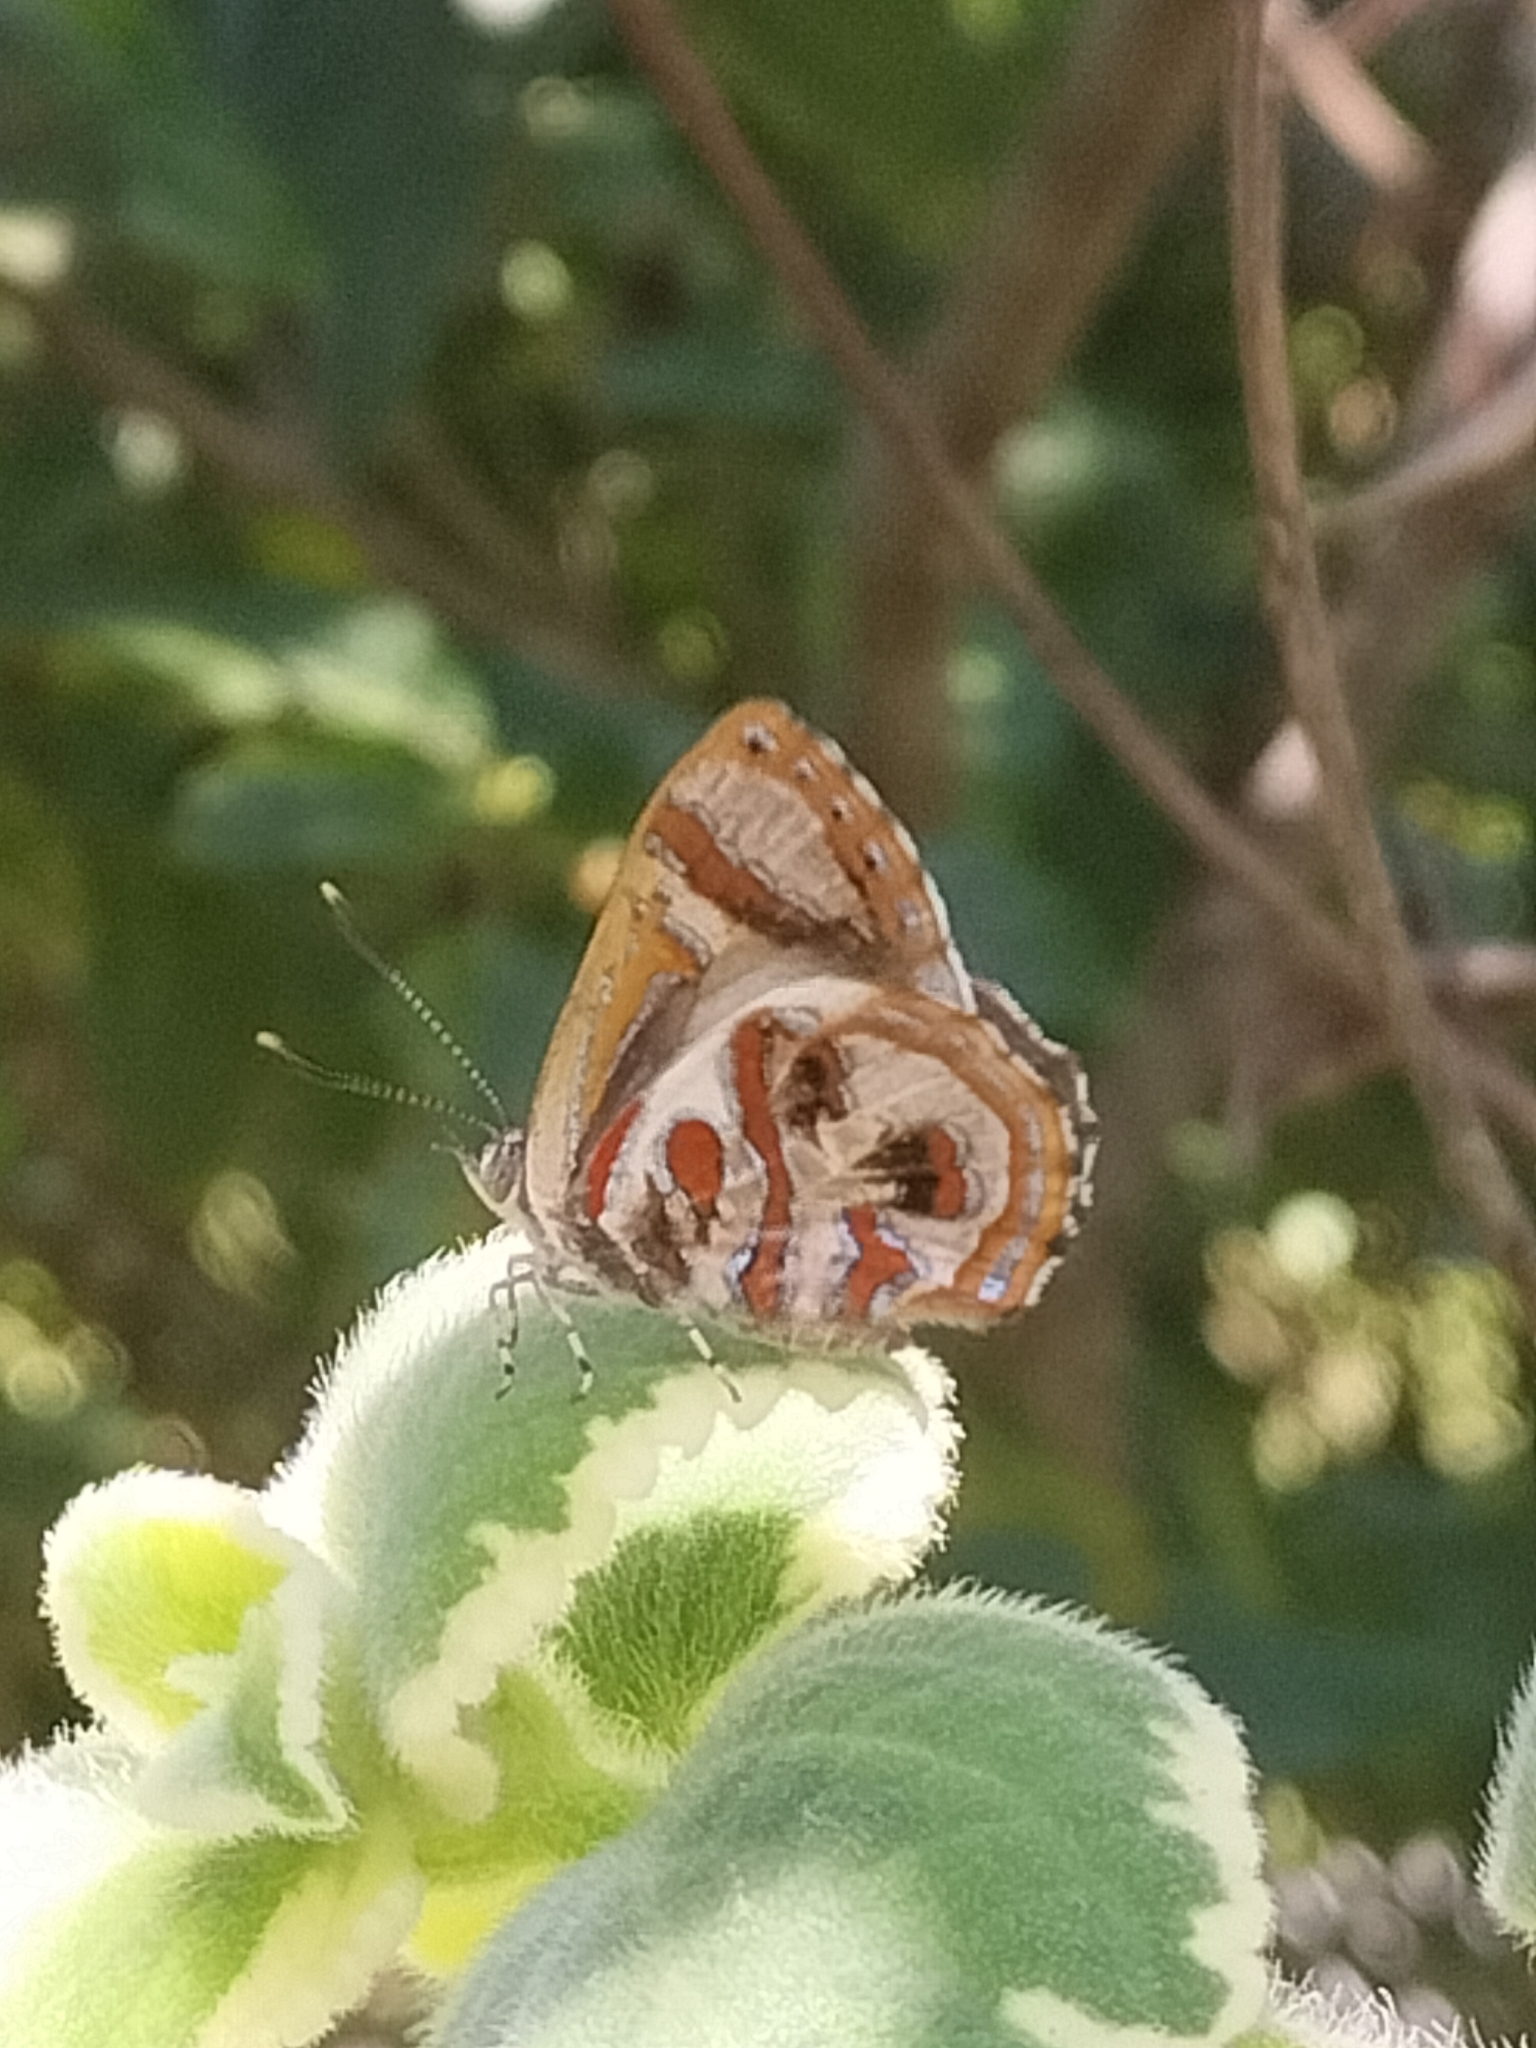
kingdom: Animalia
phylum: Arthropoda
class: Insecta
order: Lepidoptera
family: Lycaenidae
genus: Hypochrysops
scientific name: Hypochrysops narcissus
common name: Narcissus jewel
